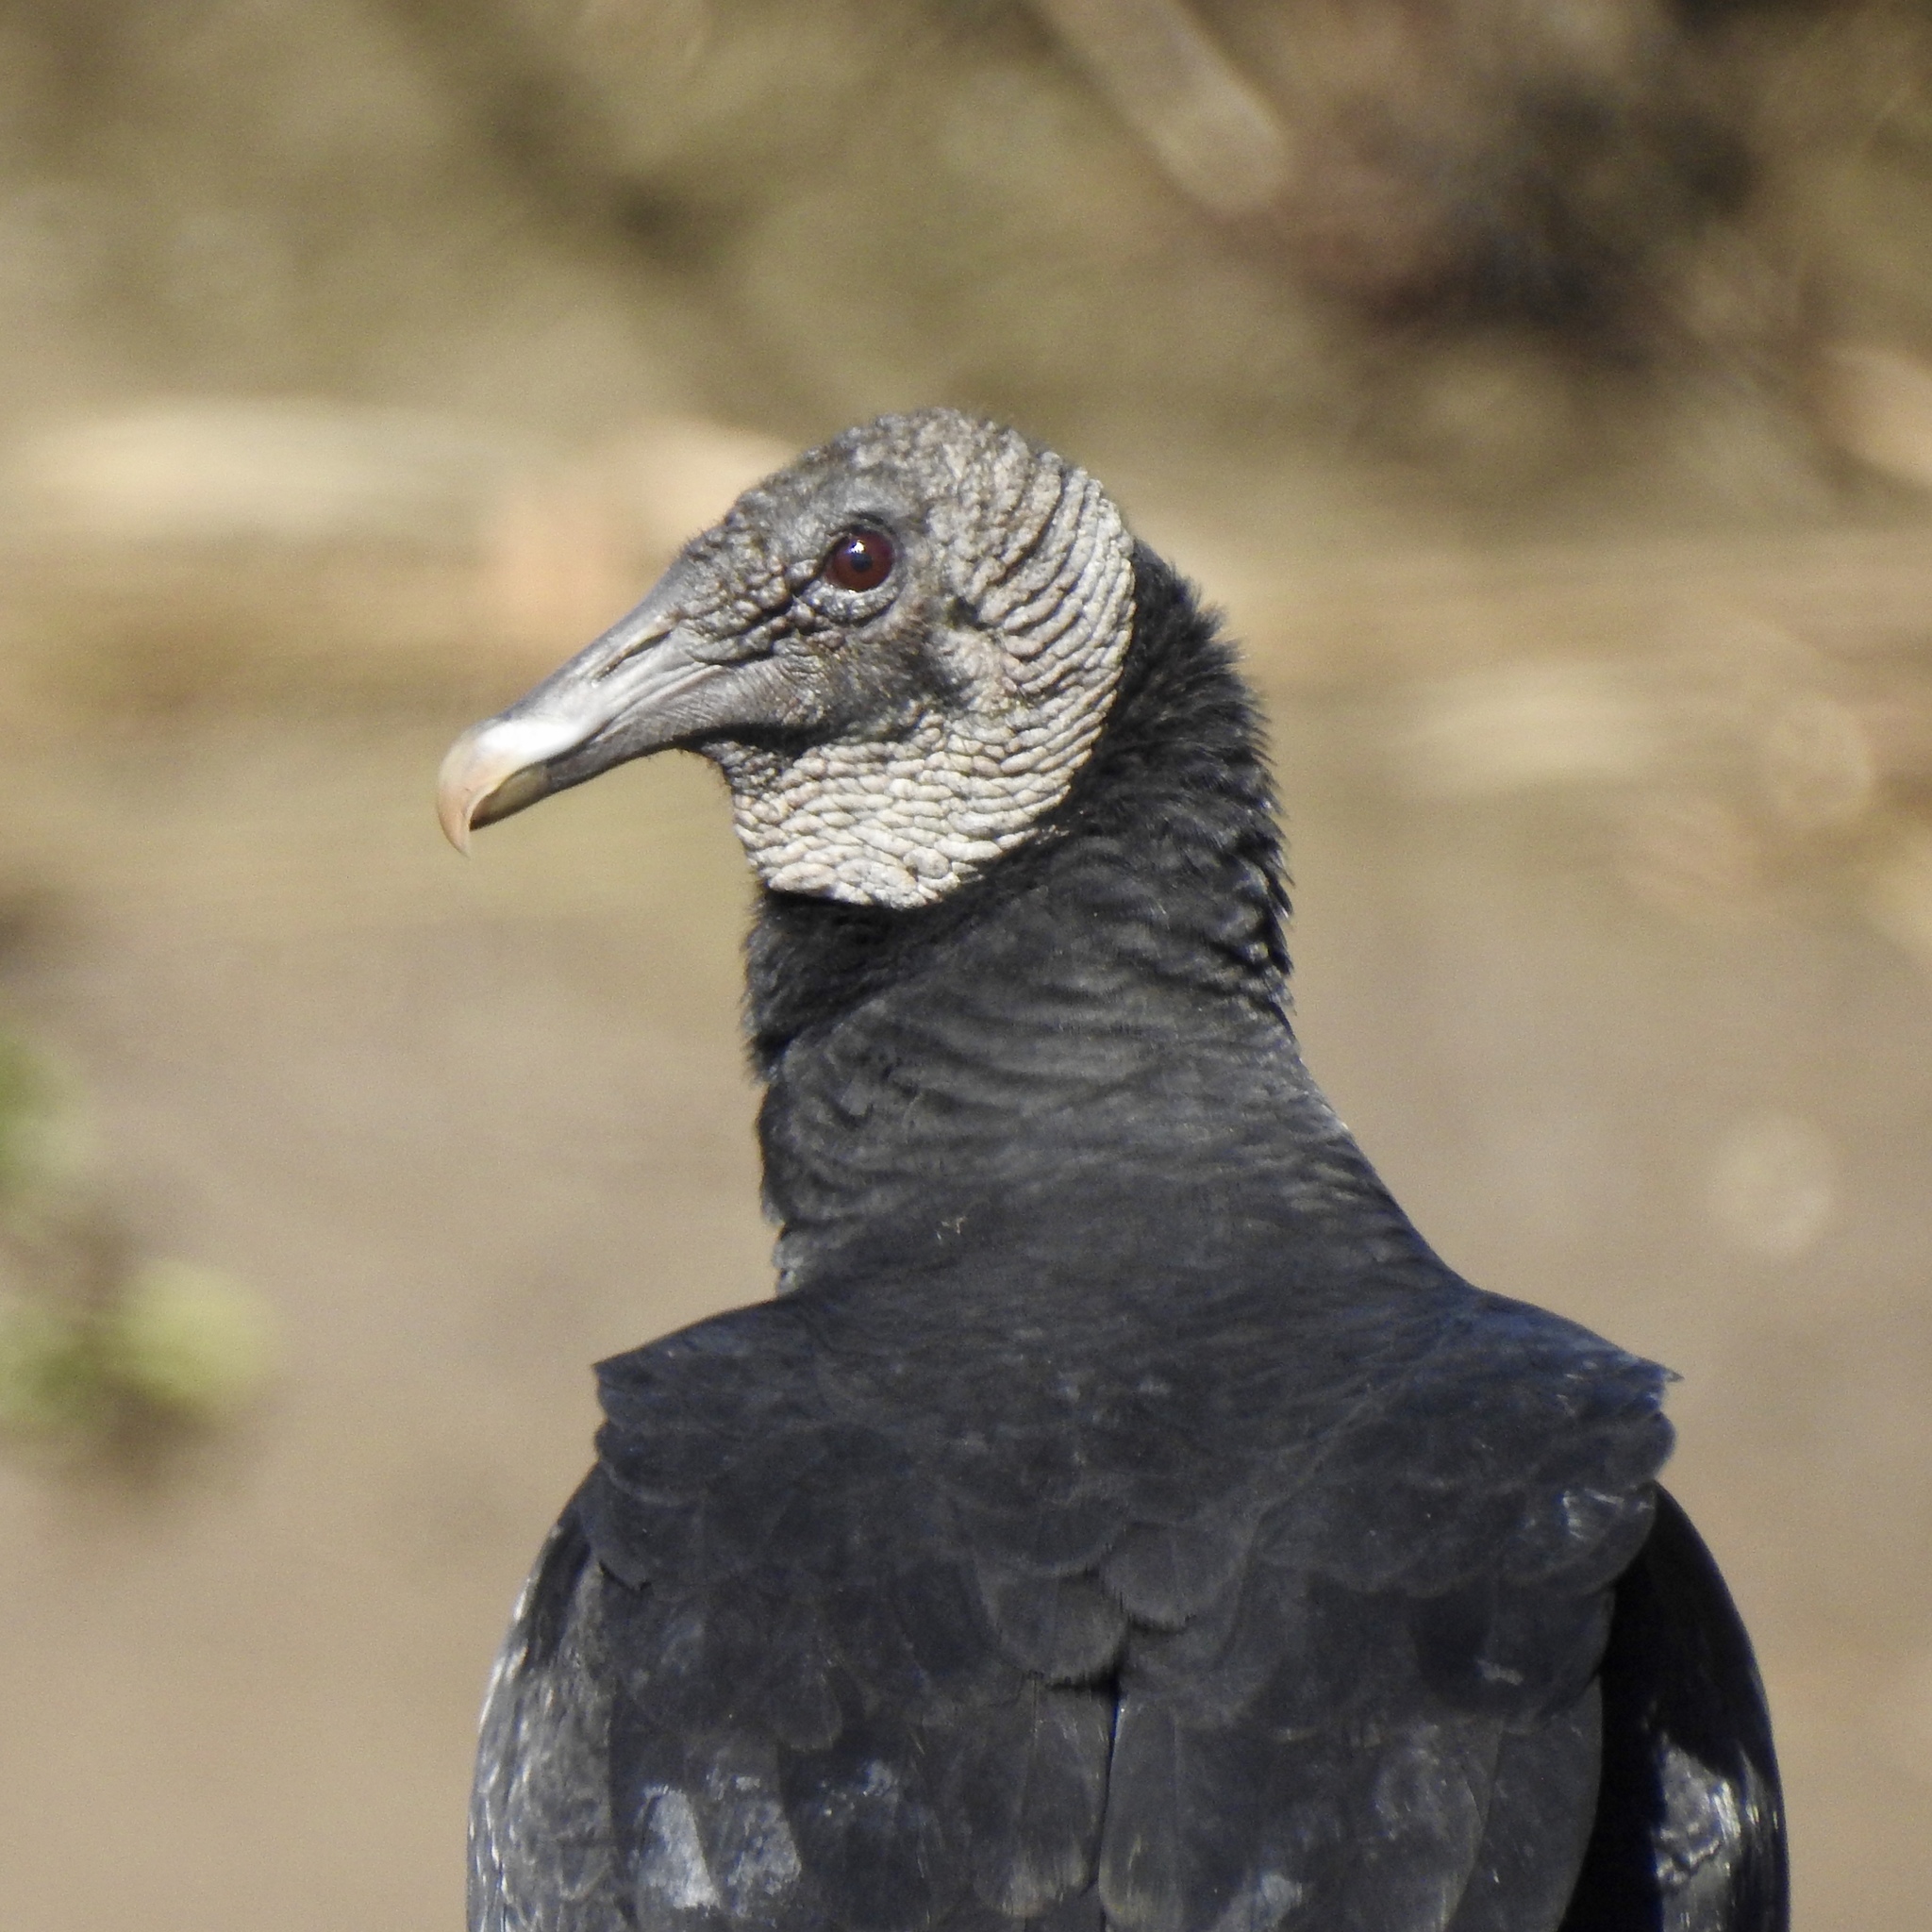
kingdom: Animalia
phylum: Chordata
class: Aves
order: Accipitriformes
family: Cathartidae
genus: Coragyps
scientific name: Coragyps atratus
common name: Black vulture
